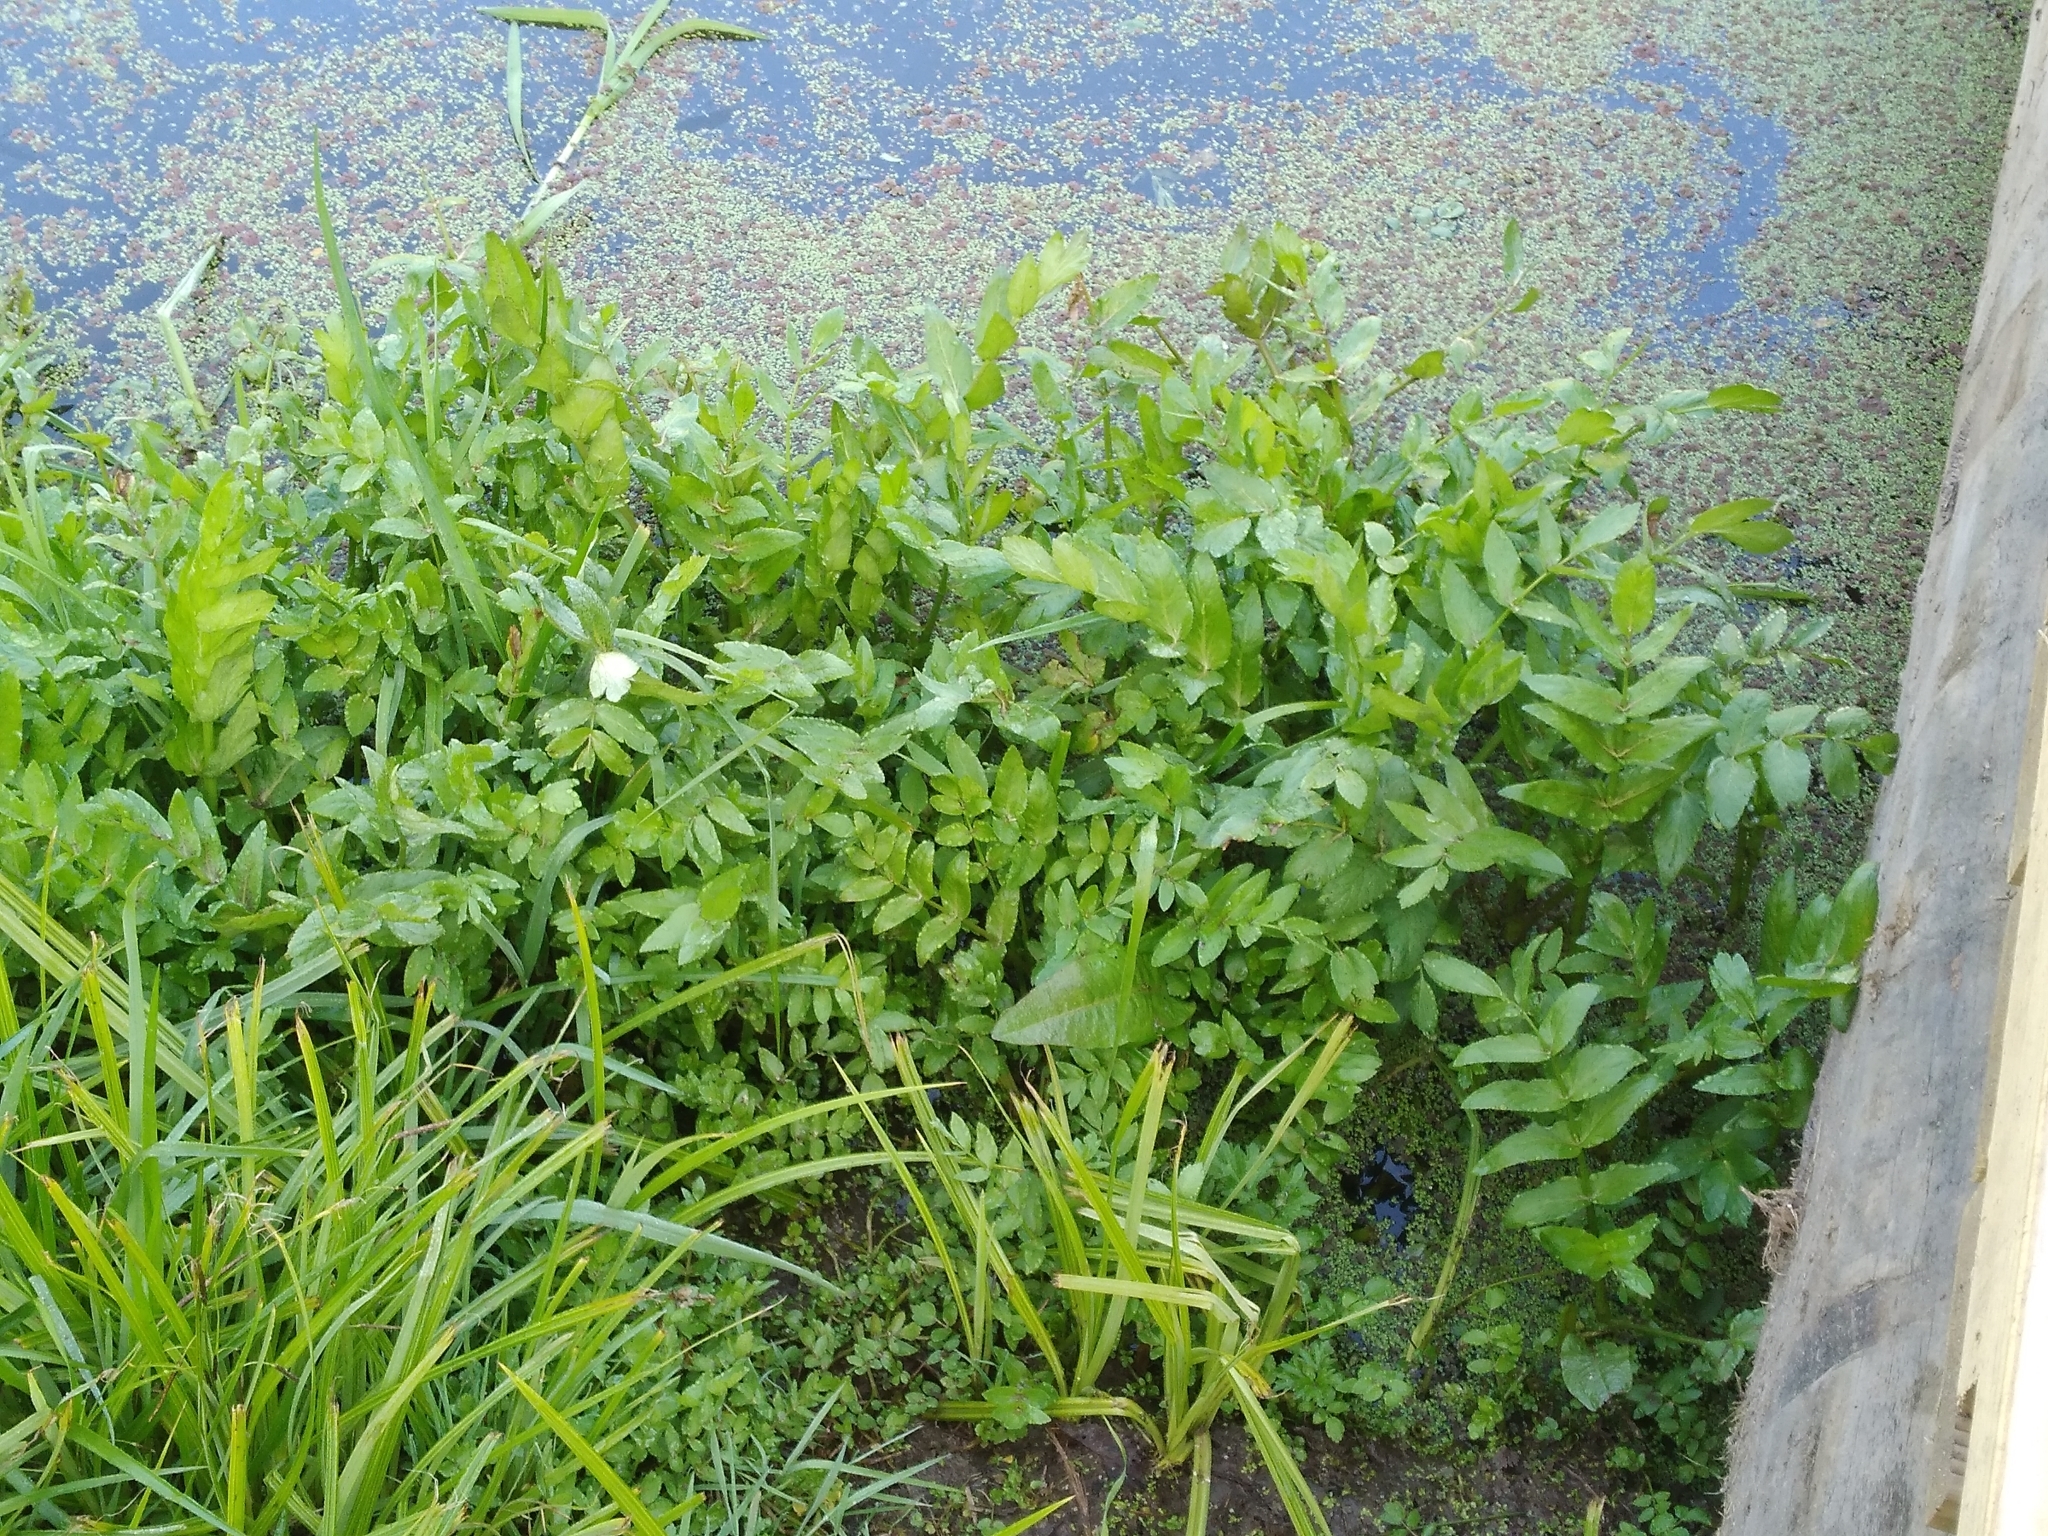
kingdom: Plantae
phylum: Tracheophyta
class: Magnoliopsida
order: Apiales
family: Apiaceae
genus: Helosciadium
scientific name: Helosciadium nodiflorum
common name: Fool's-watercress
